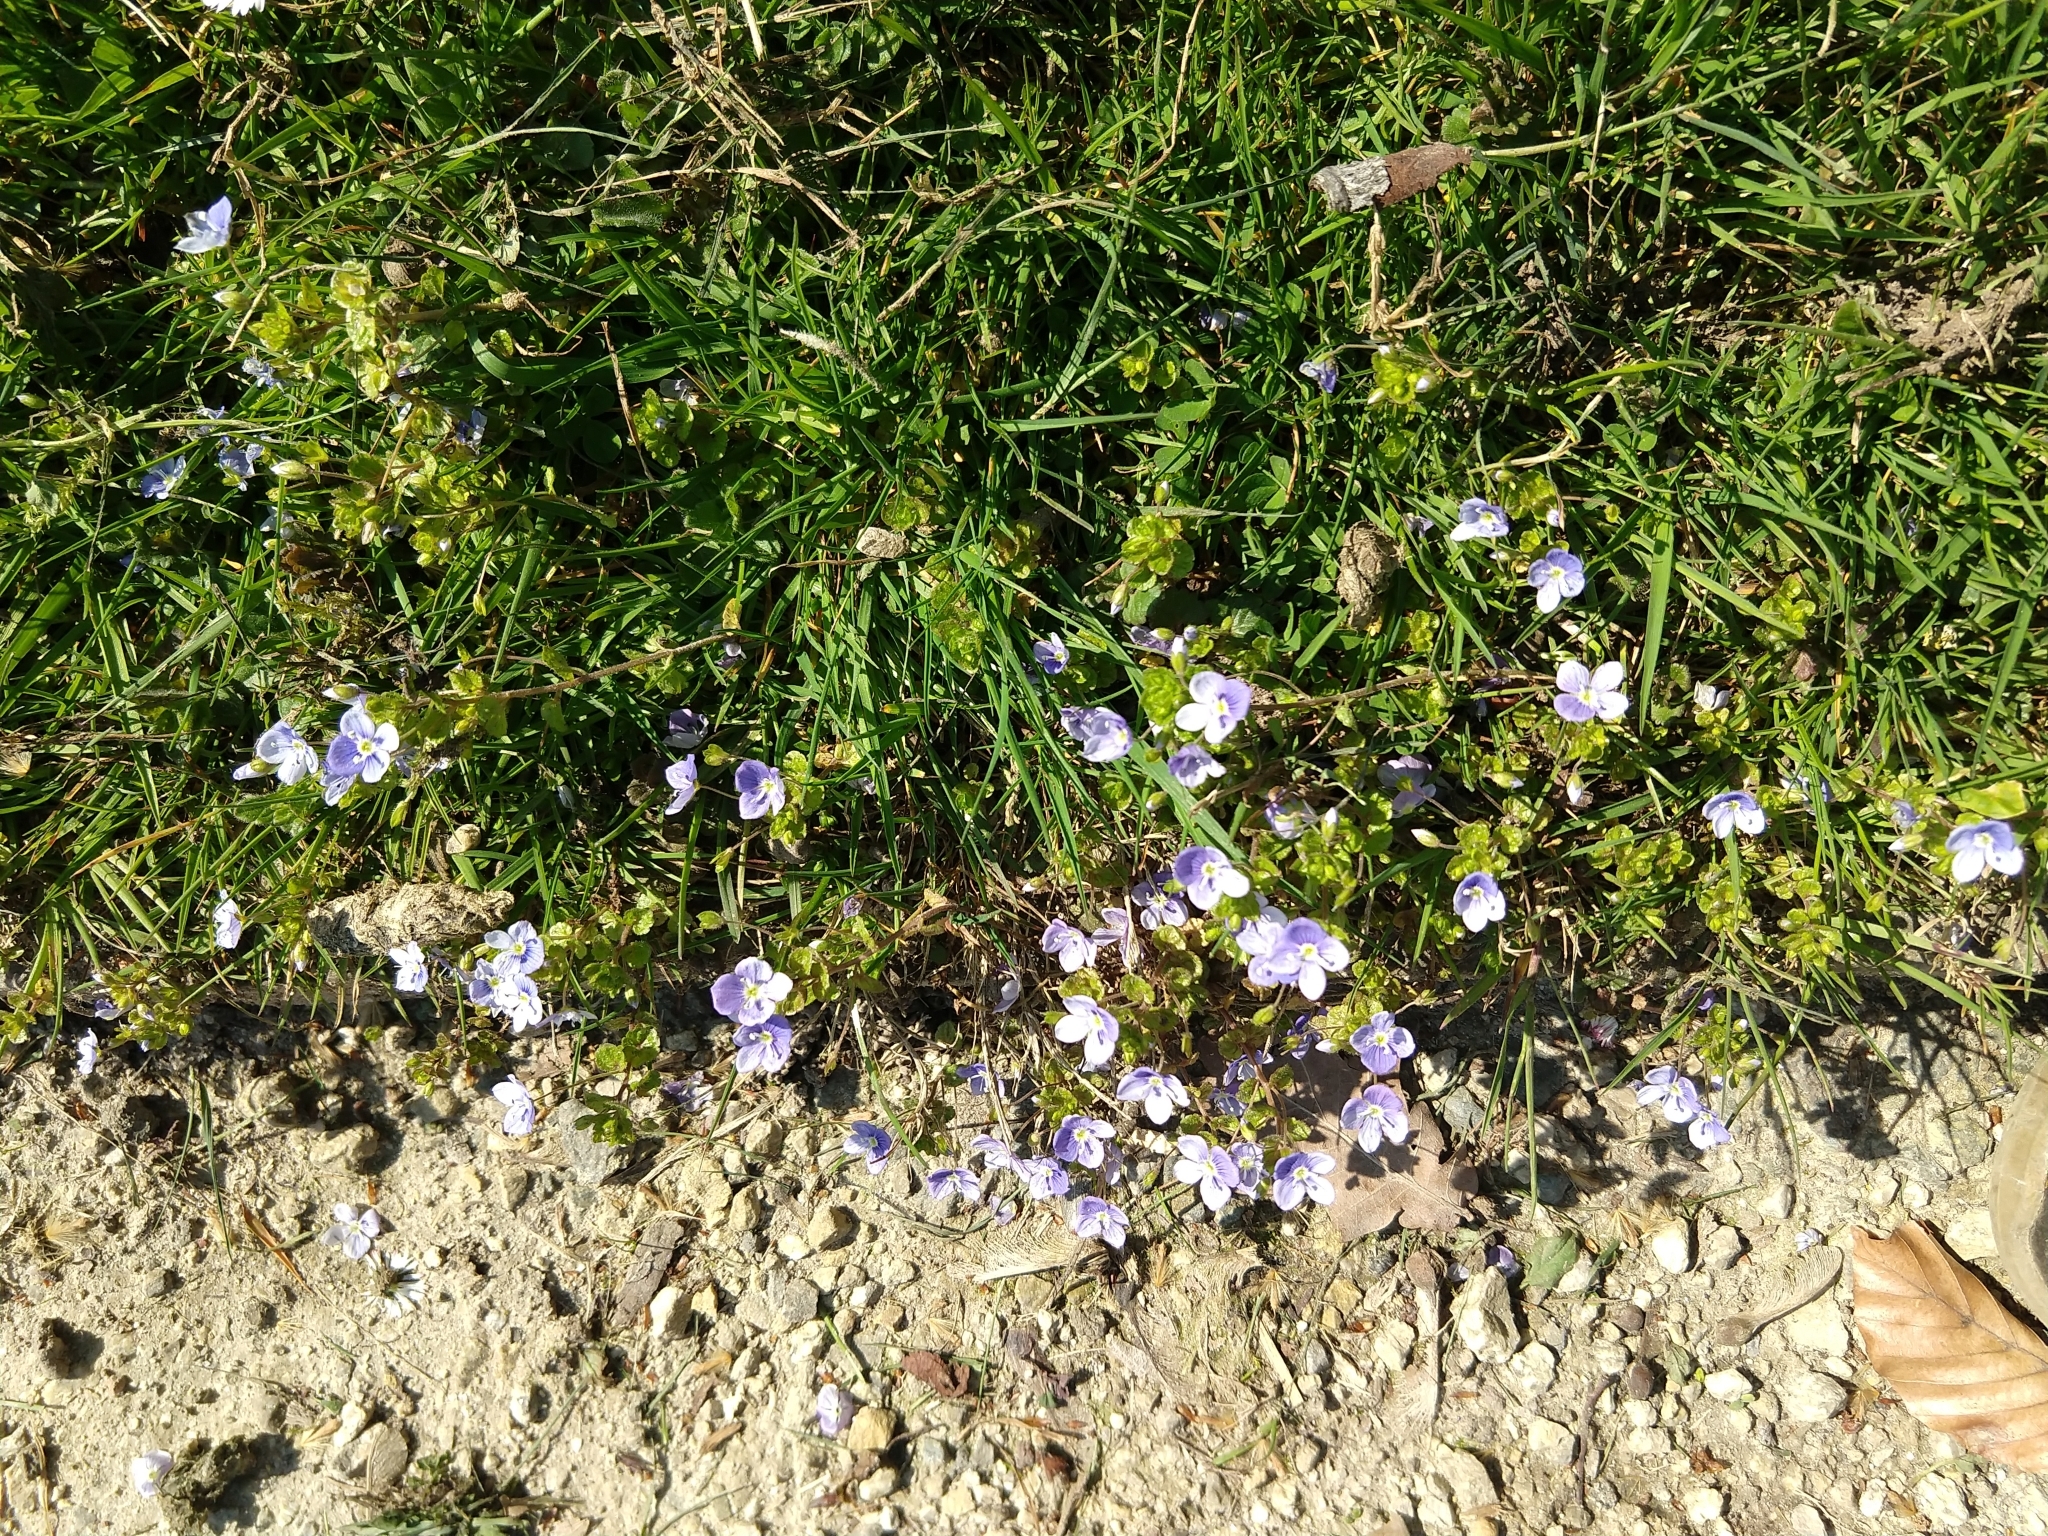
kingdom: Plantae
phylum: Tracheophyta
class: Magnoliopsida
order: Lamiales
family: Plantaginaceae
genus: Veronica
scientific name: Veronica filiformis
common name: Slender speedwell
